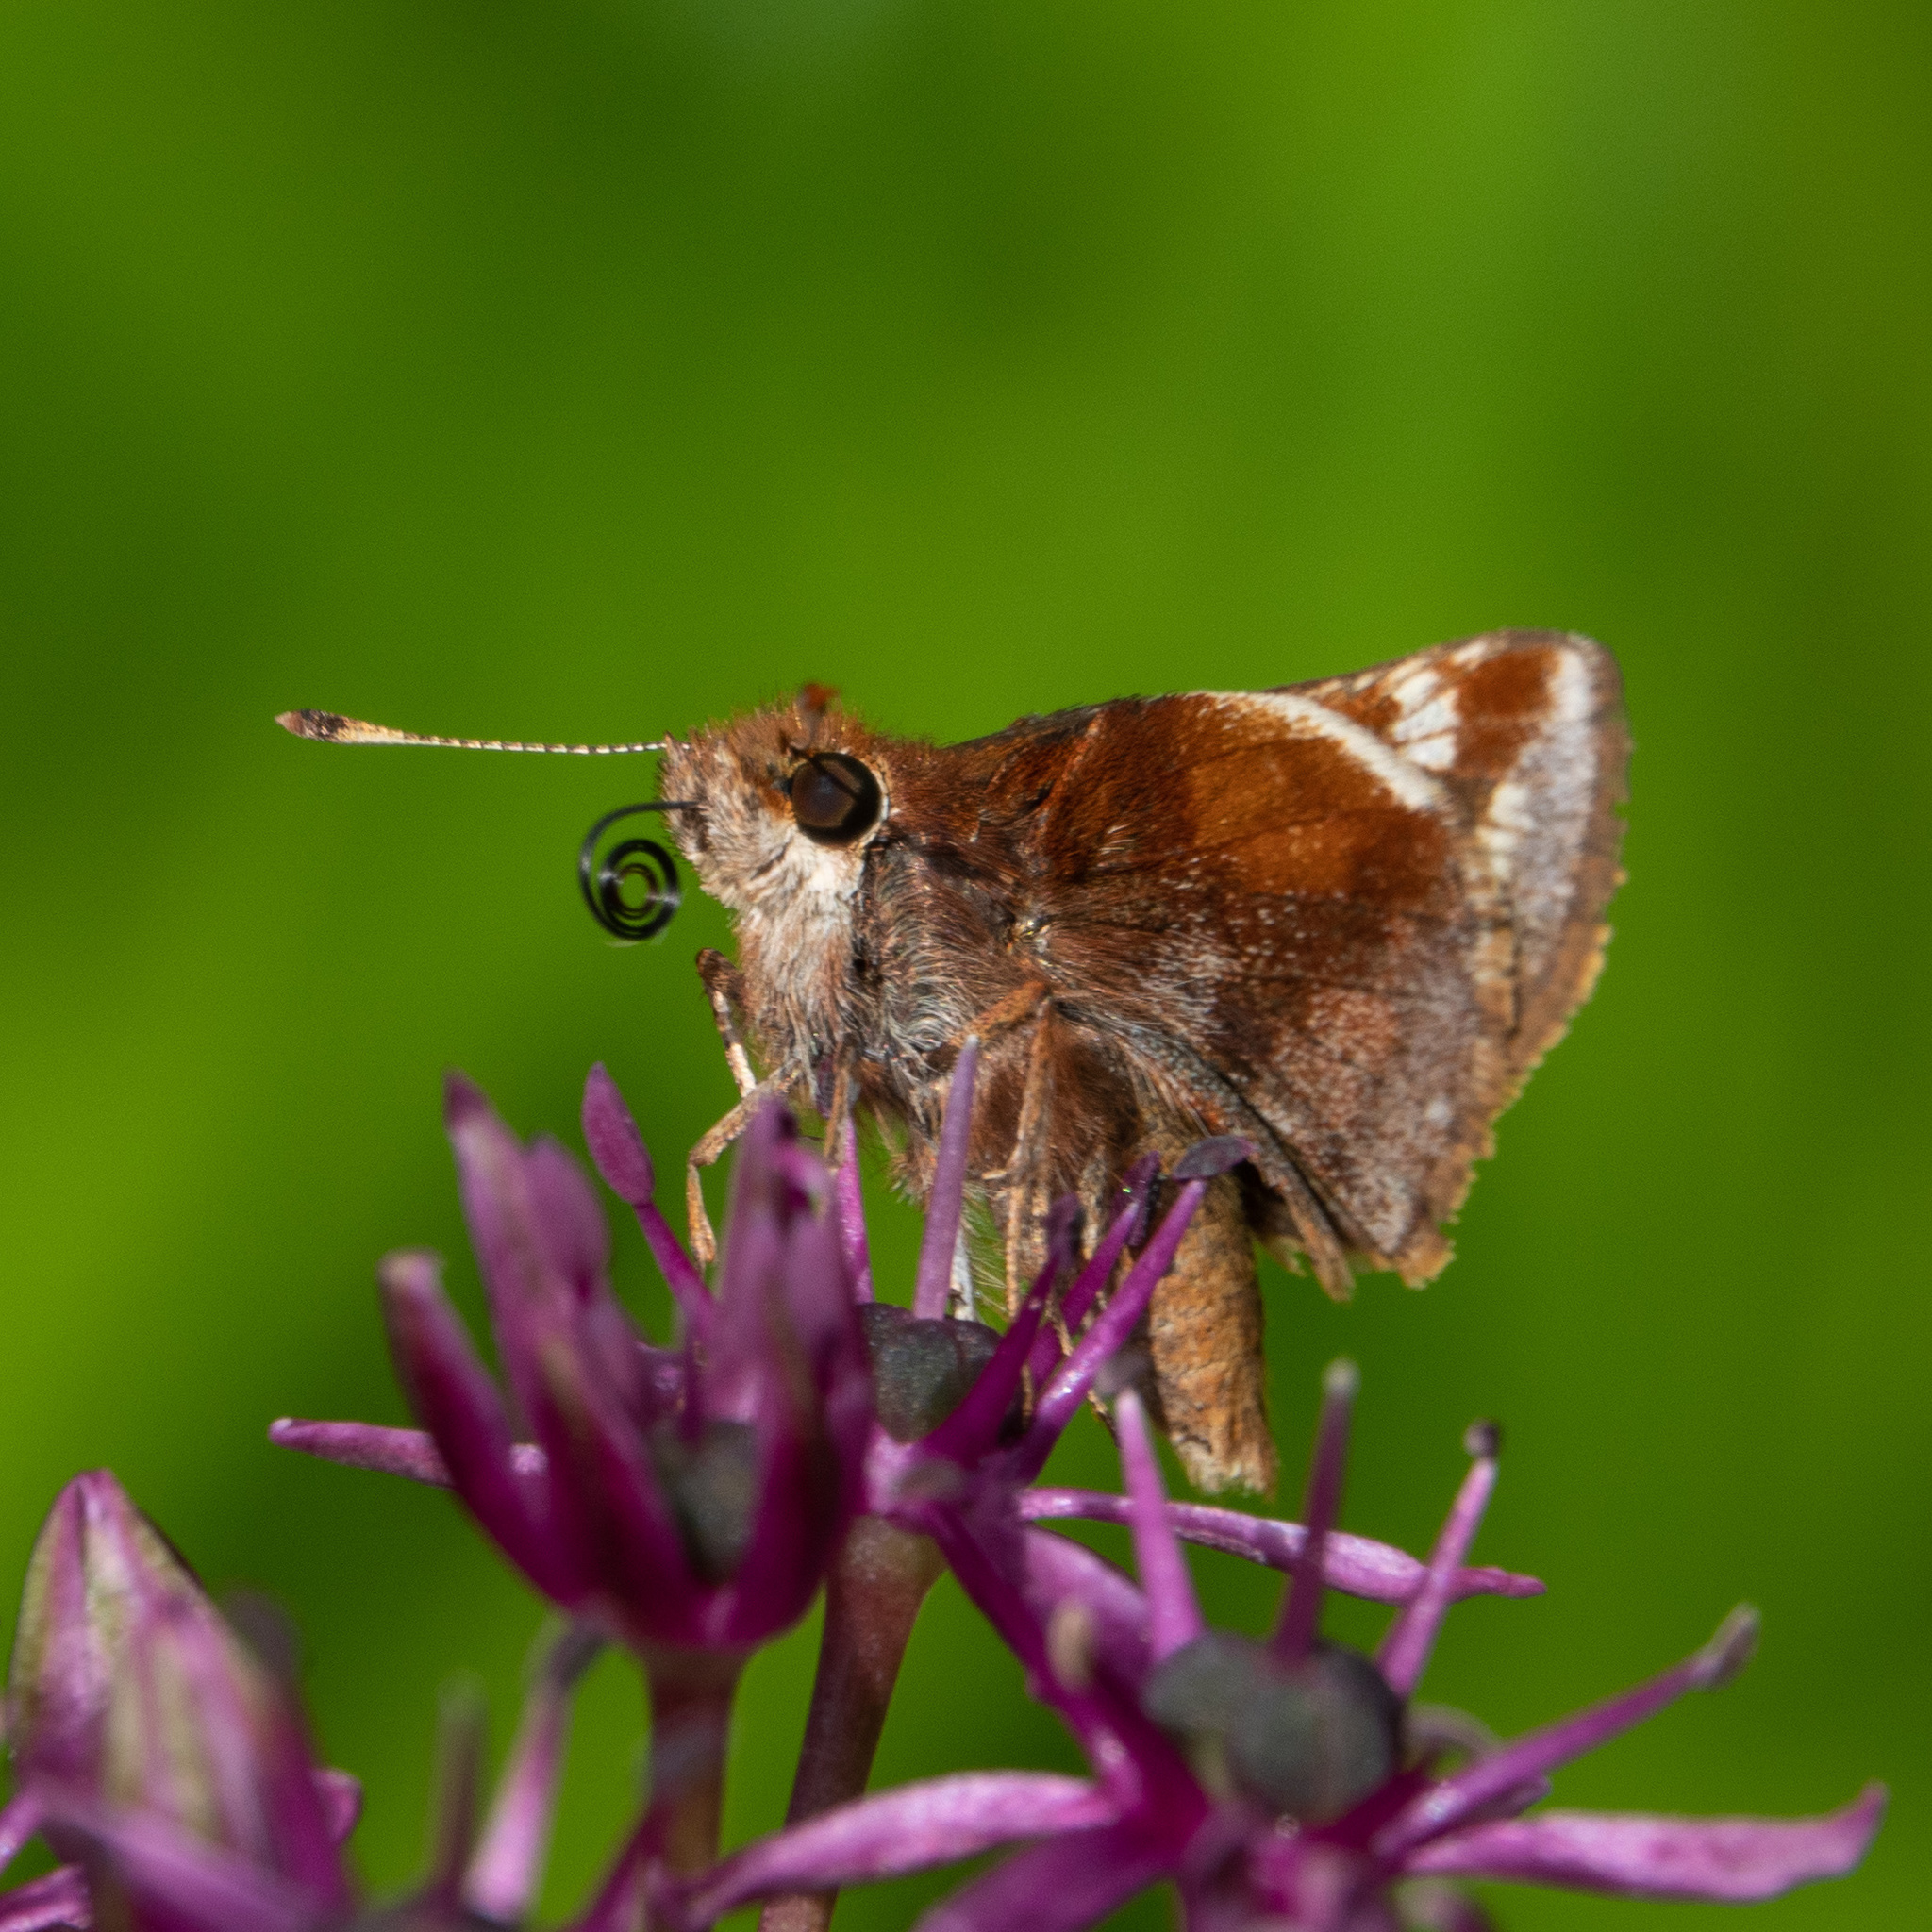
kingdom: Animalia
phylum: Arthropoda
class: Insecta
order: Lepidoptera
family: Hesperiidae
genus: Lon
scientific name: Lon zabulon
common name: Zabulon skipper
